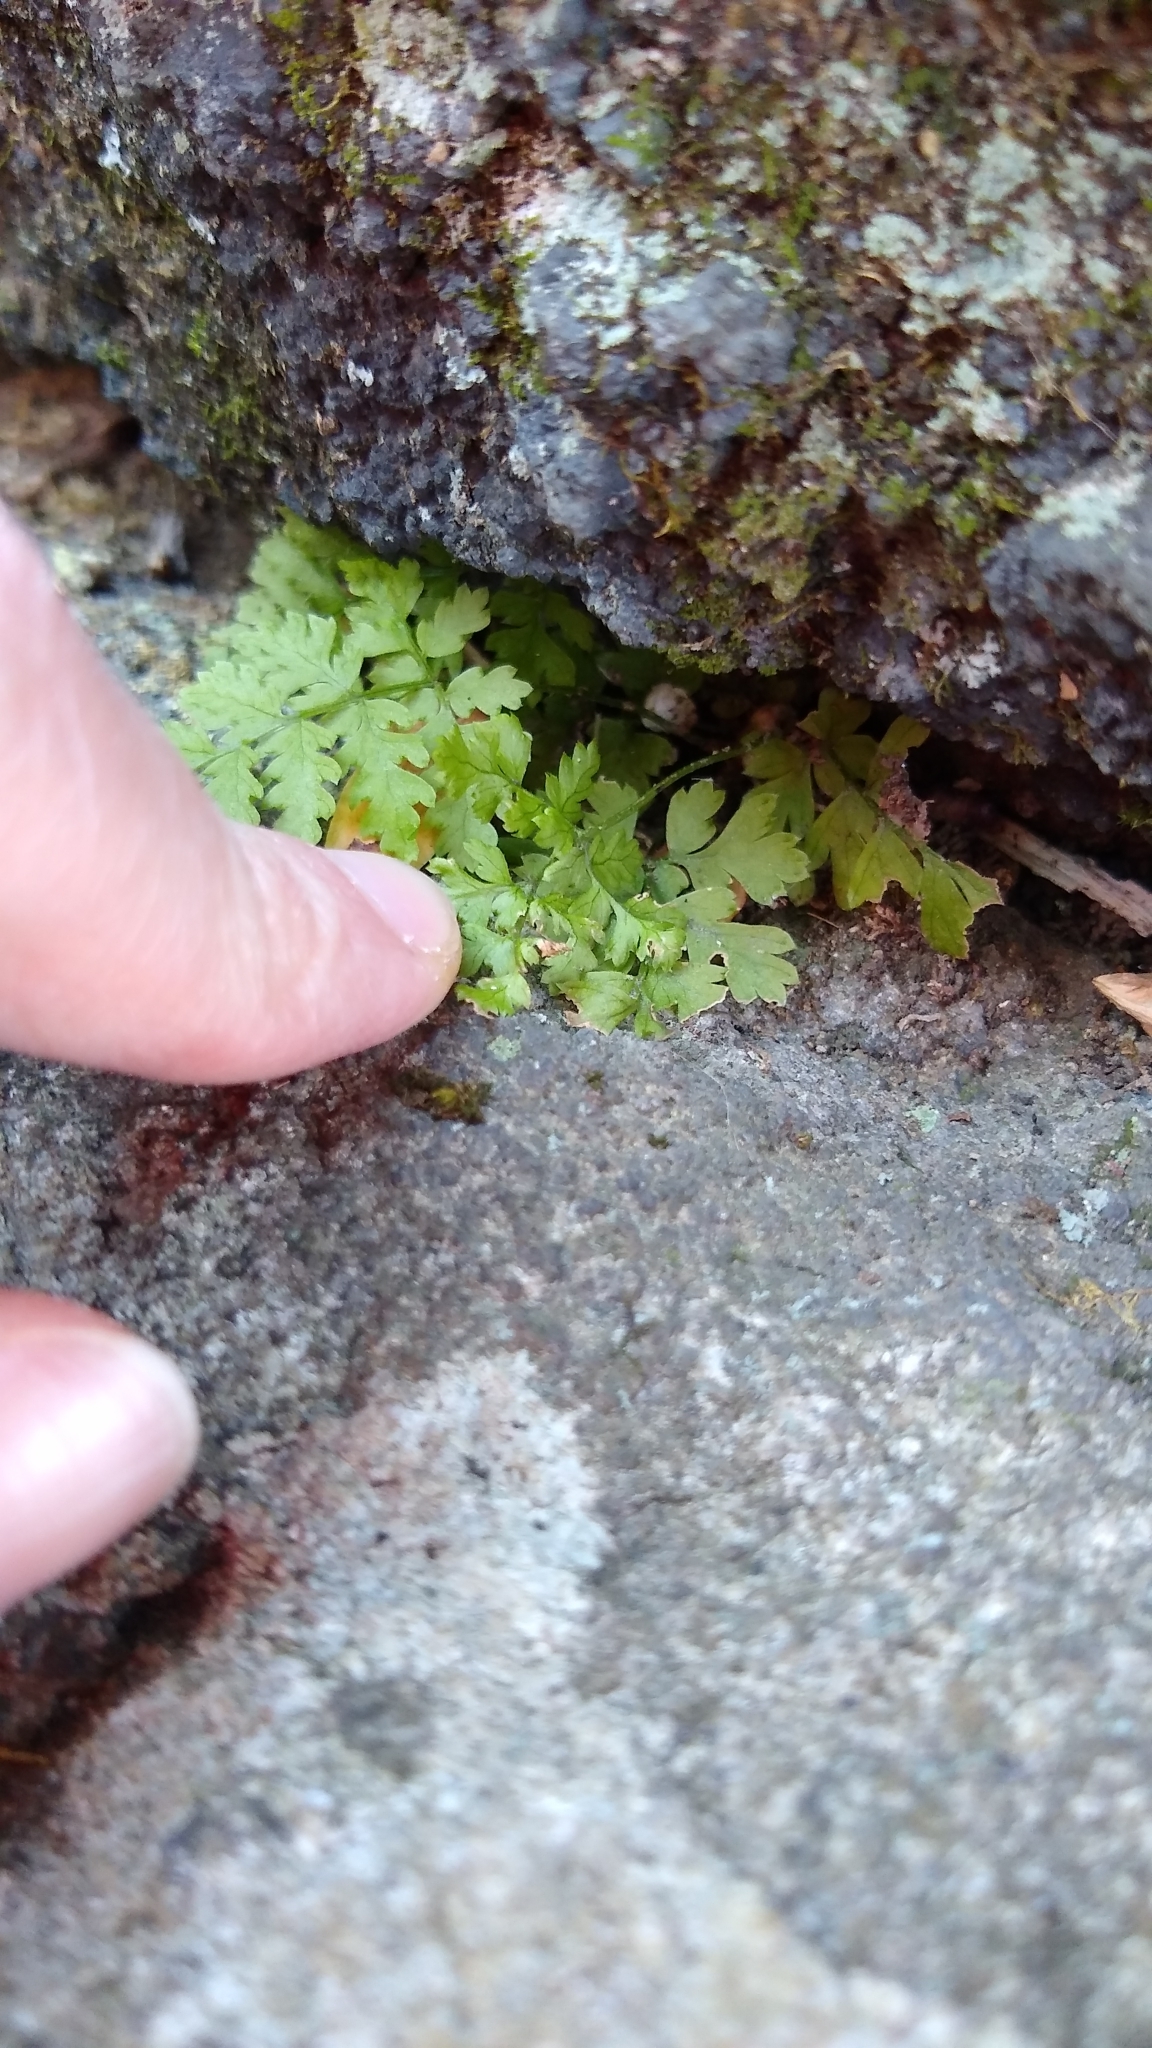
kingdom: Plantae
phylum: Tracheophyta
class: Polypodiopsida
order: Polypodiales
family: Dryopteridaceae
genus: Dryopteris
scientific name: Dryopteris intermedia
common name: Evergreen wood fern
